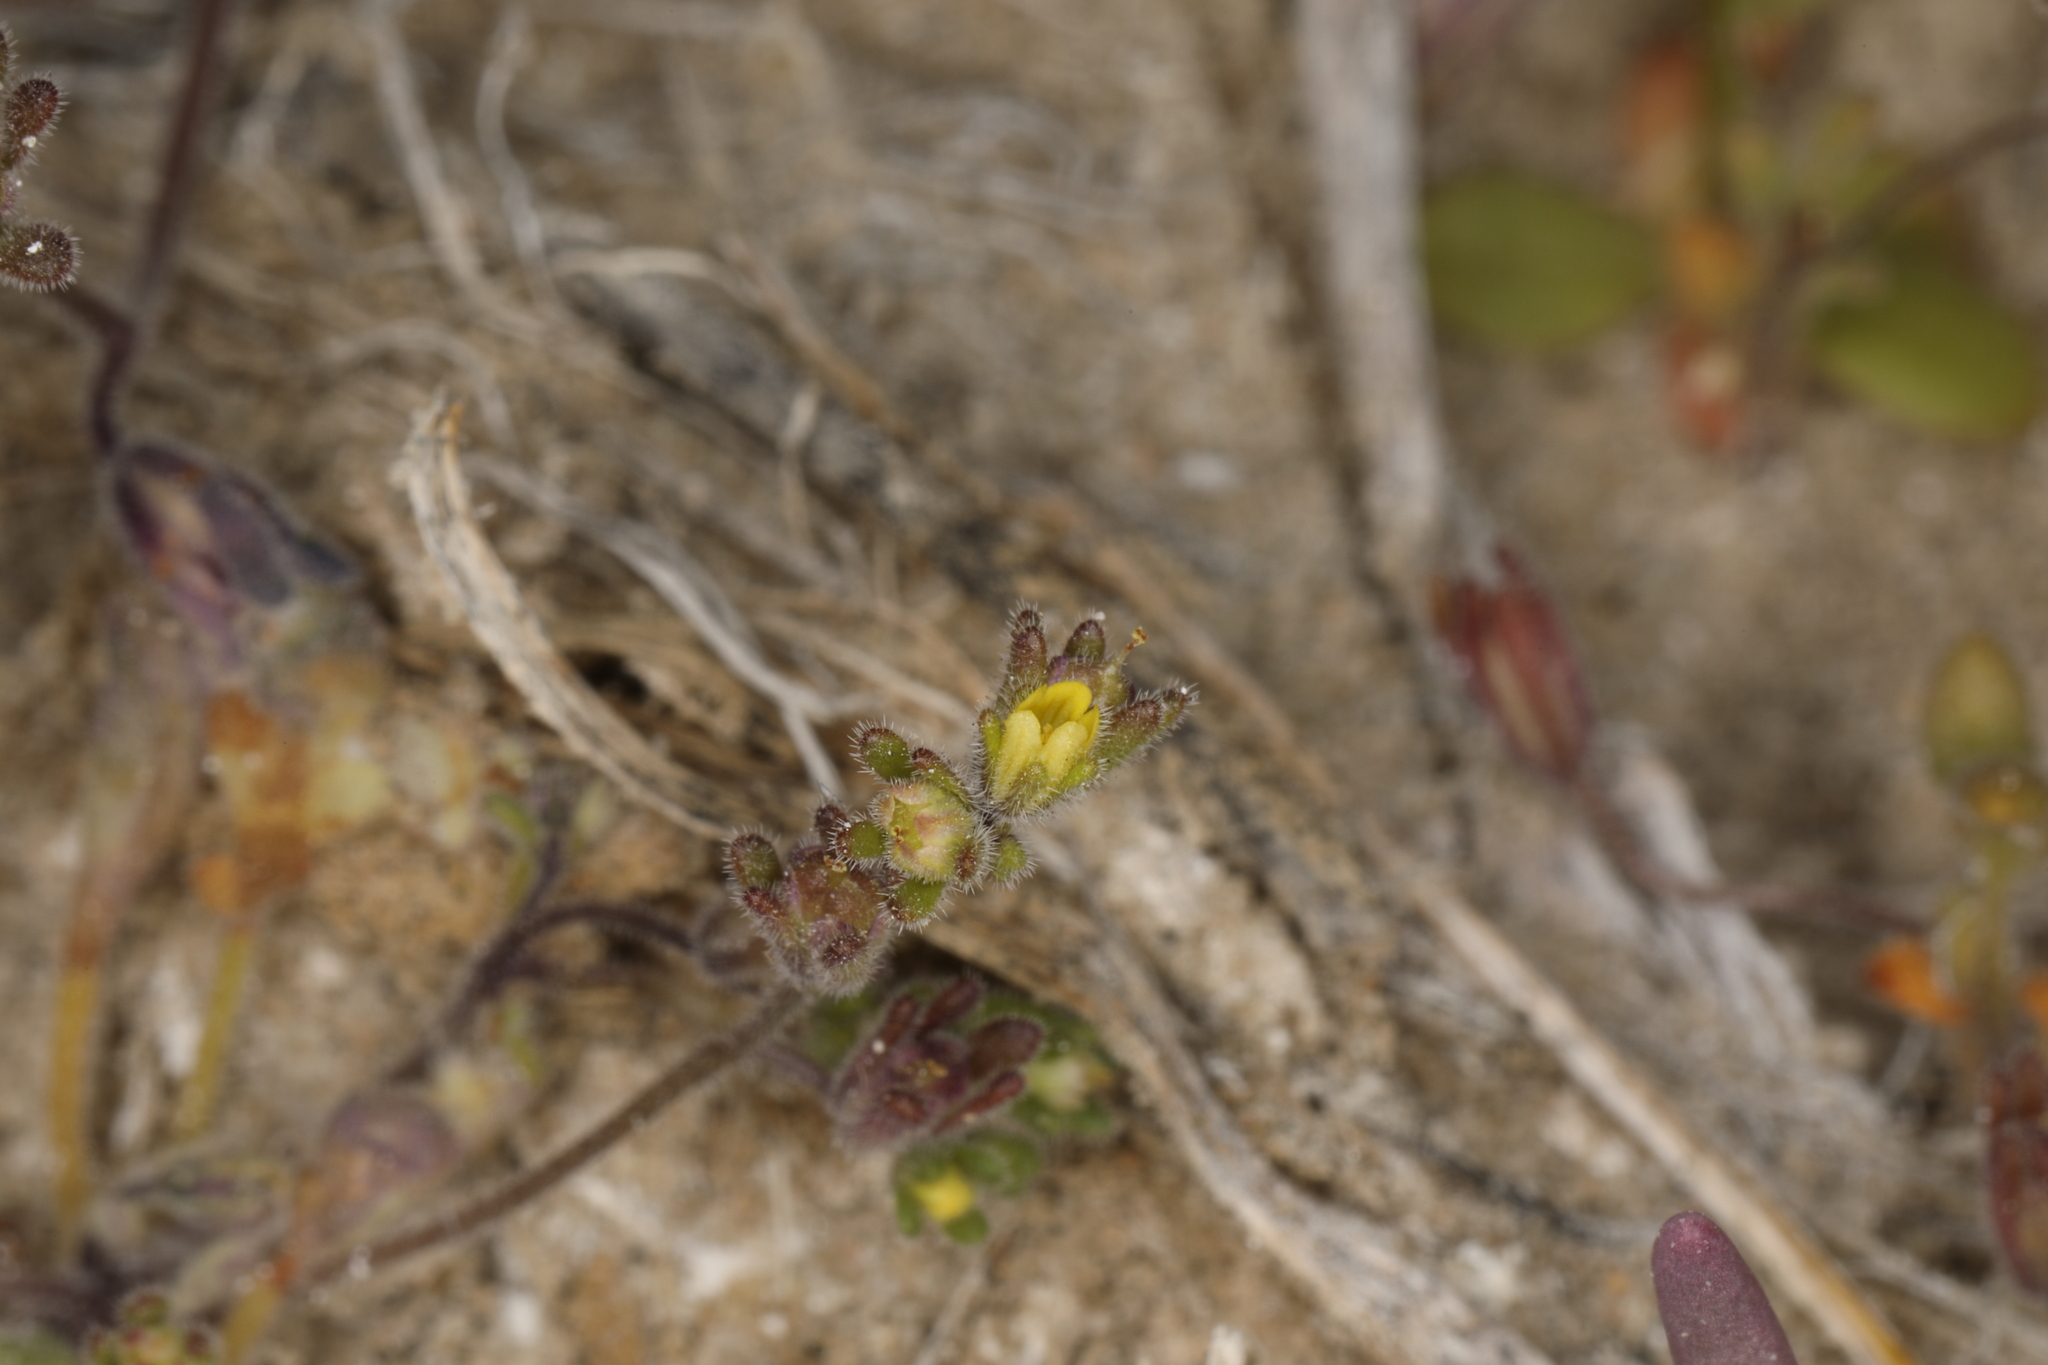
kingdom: Plantae
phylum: Tracheophyta
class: Magnoliopsida
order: Boraginales
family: Hydrophyllaceae
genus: Phacelia
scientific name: Phacelia inyoensis
